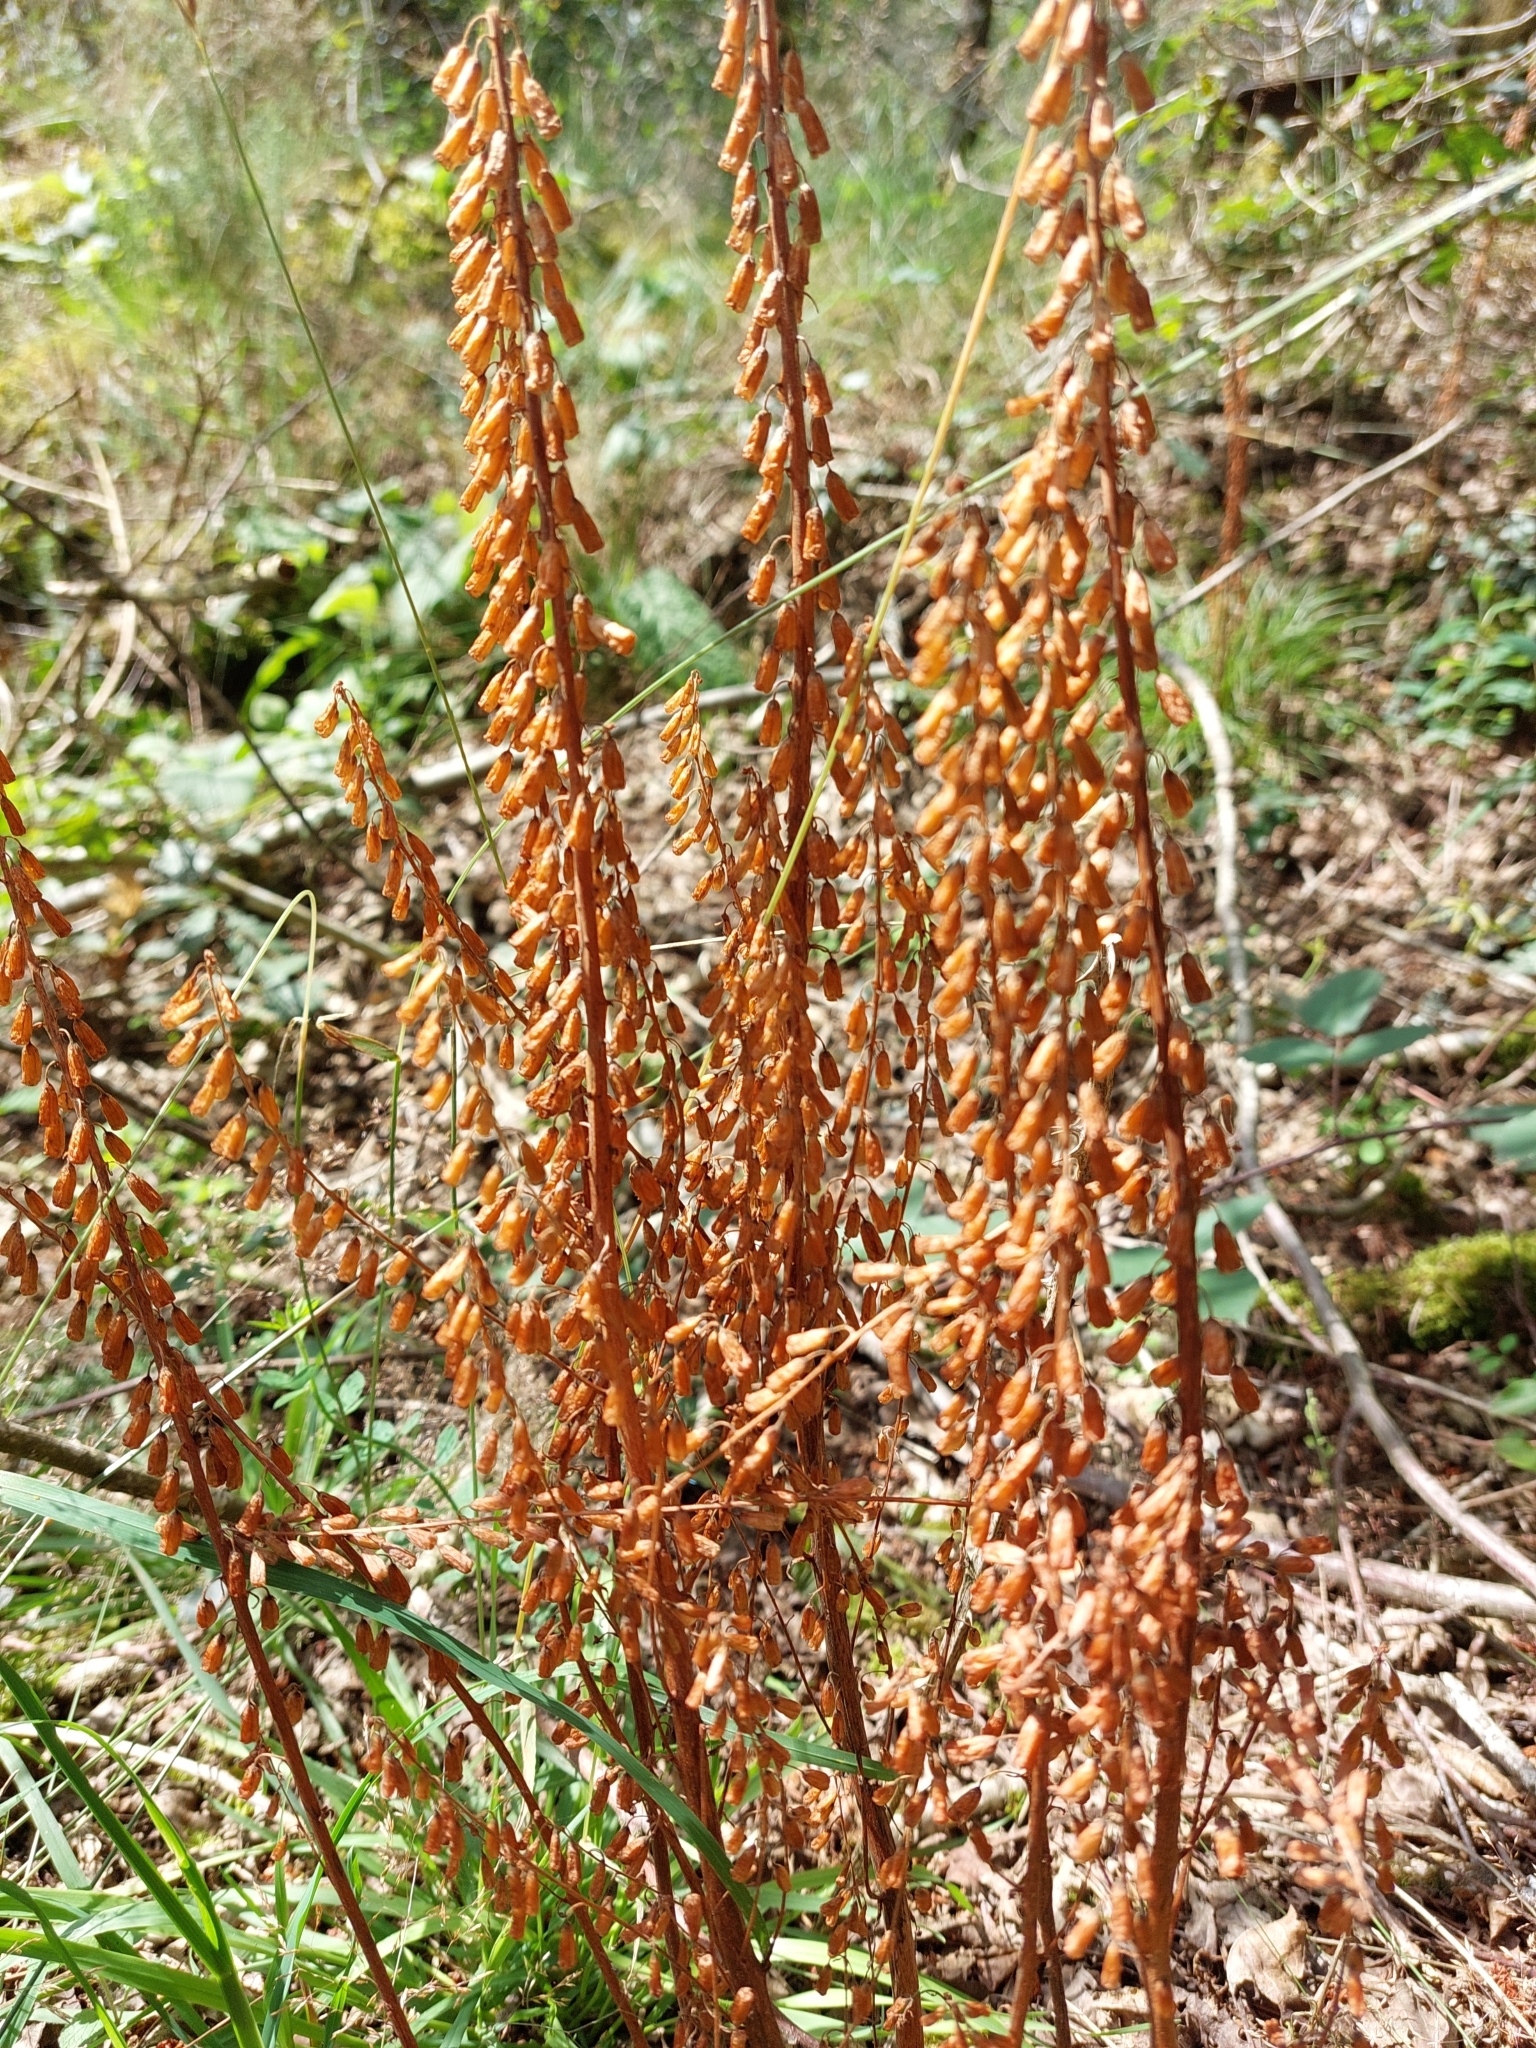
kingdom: Plantae
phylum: Tracheophyta
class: Magnoliopsida
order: Saxifragales
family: Crassulaceae
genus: Umbilicus
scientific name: Umbilicus rupestris
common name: Navelwort
